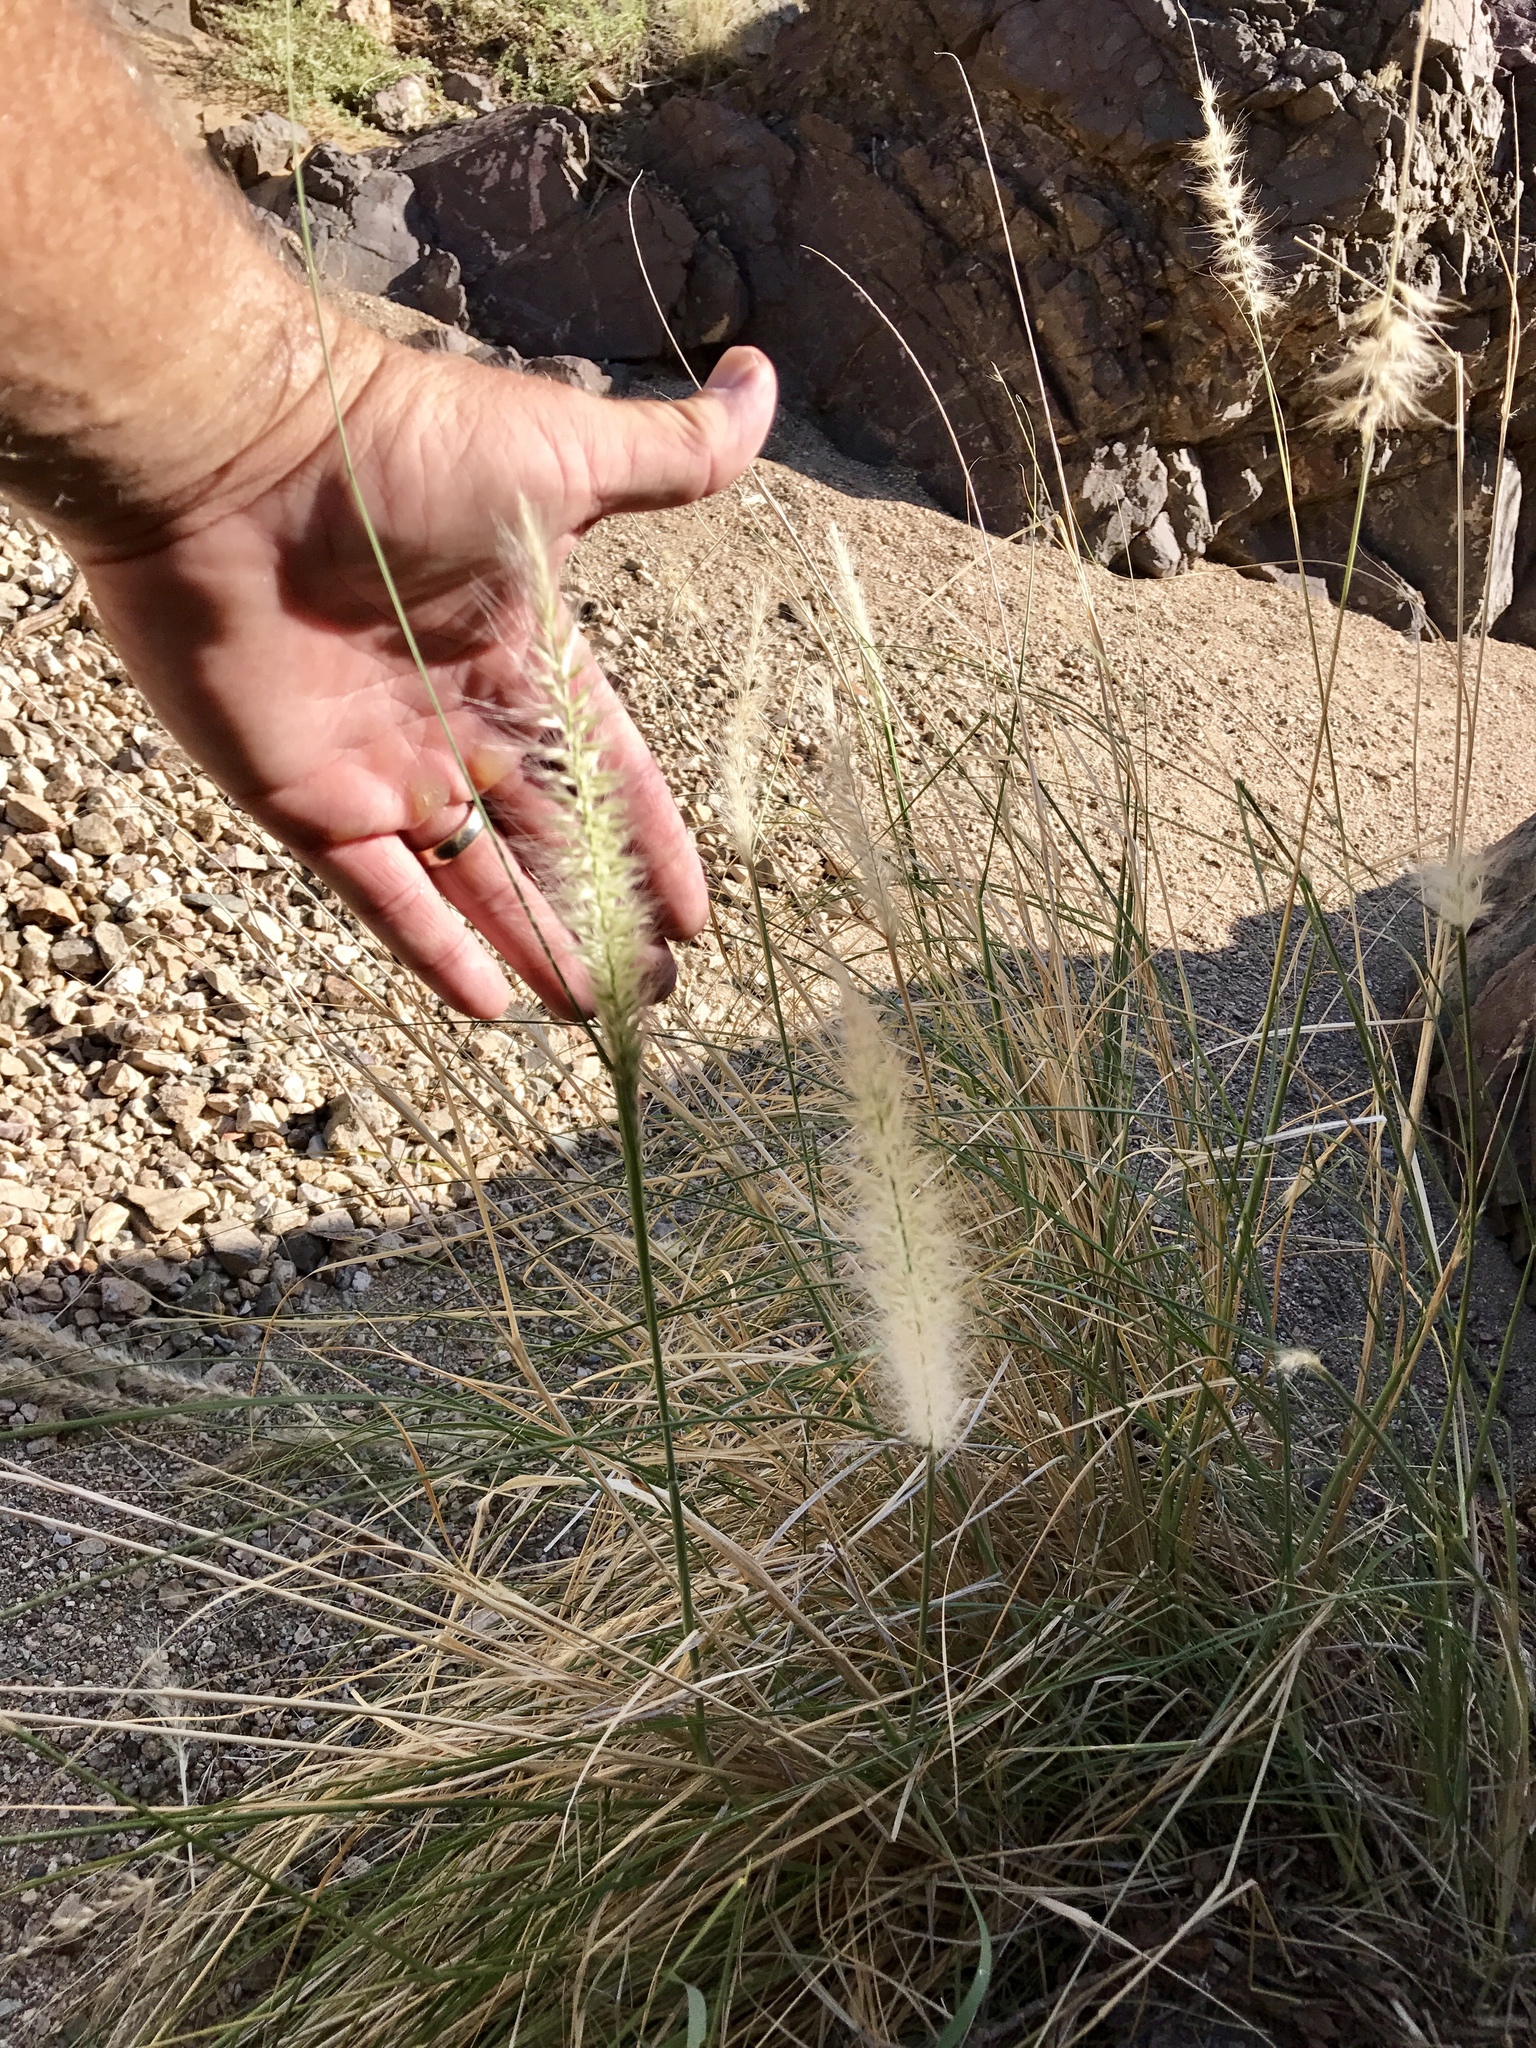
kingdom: Plantae
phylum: Tracheophyta
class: Liliopsida
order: Poales
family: Poaceae
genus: Cenchrus
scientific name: Cenchrus setaceus
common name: Crimson fountaingrass
